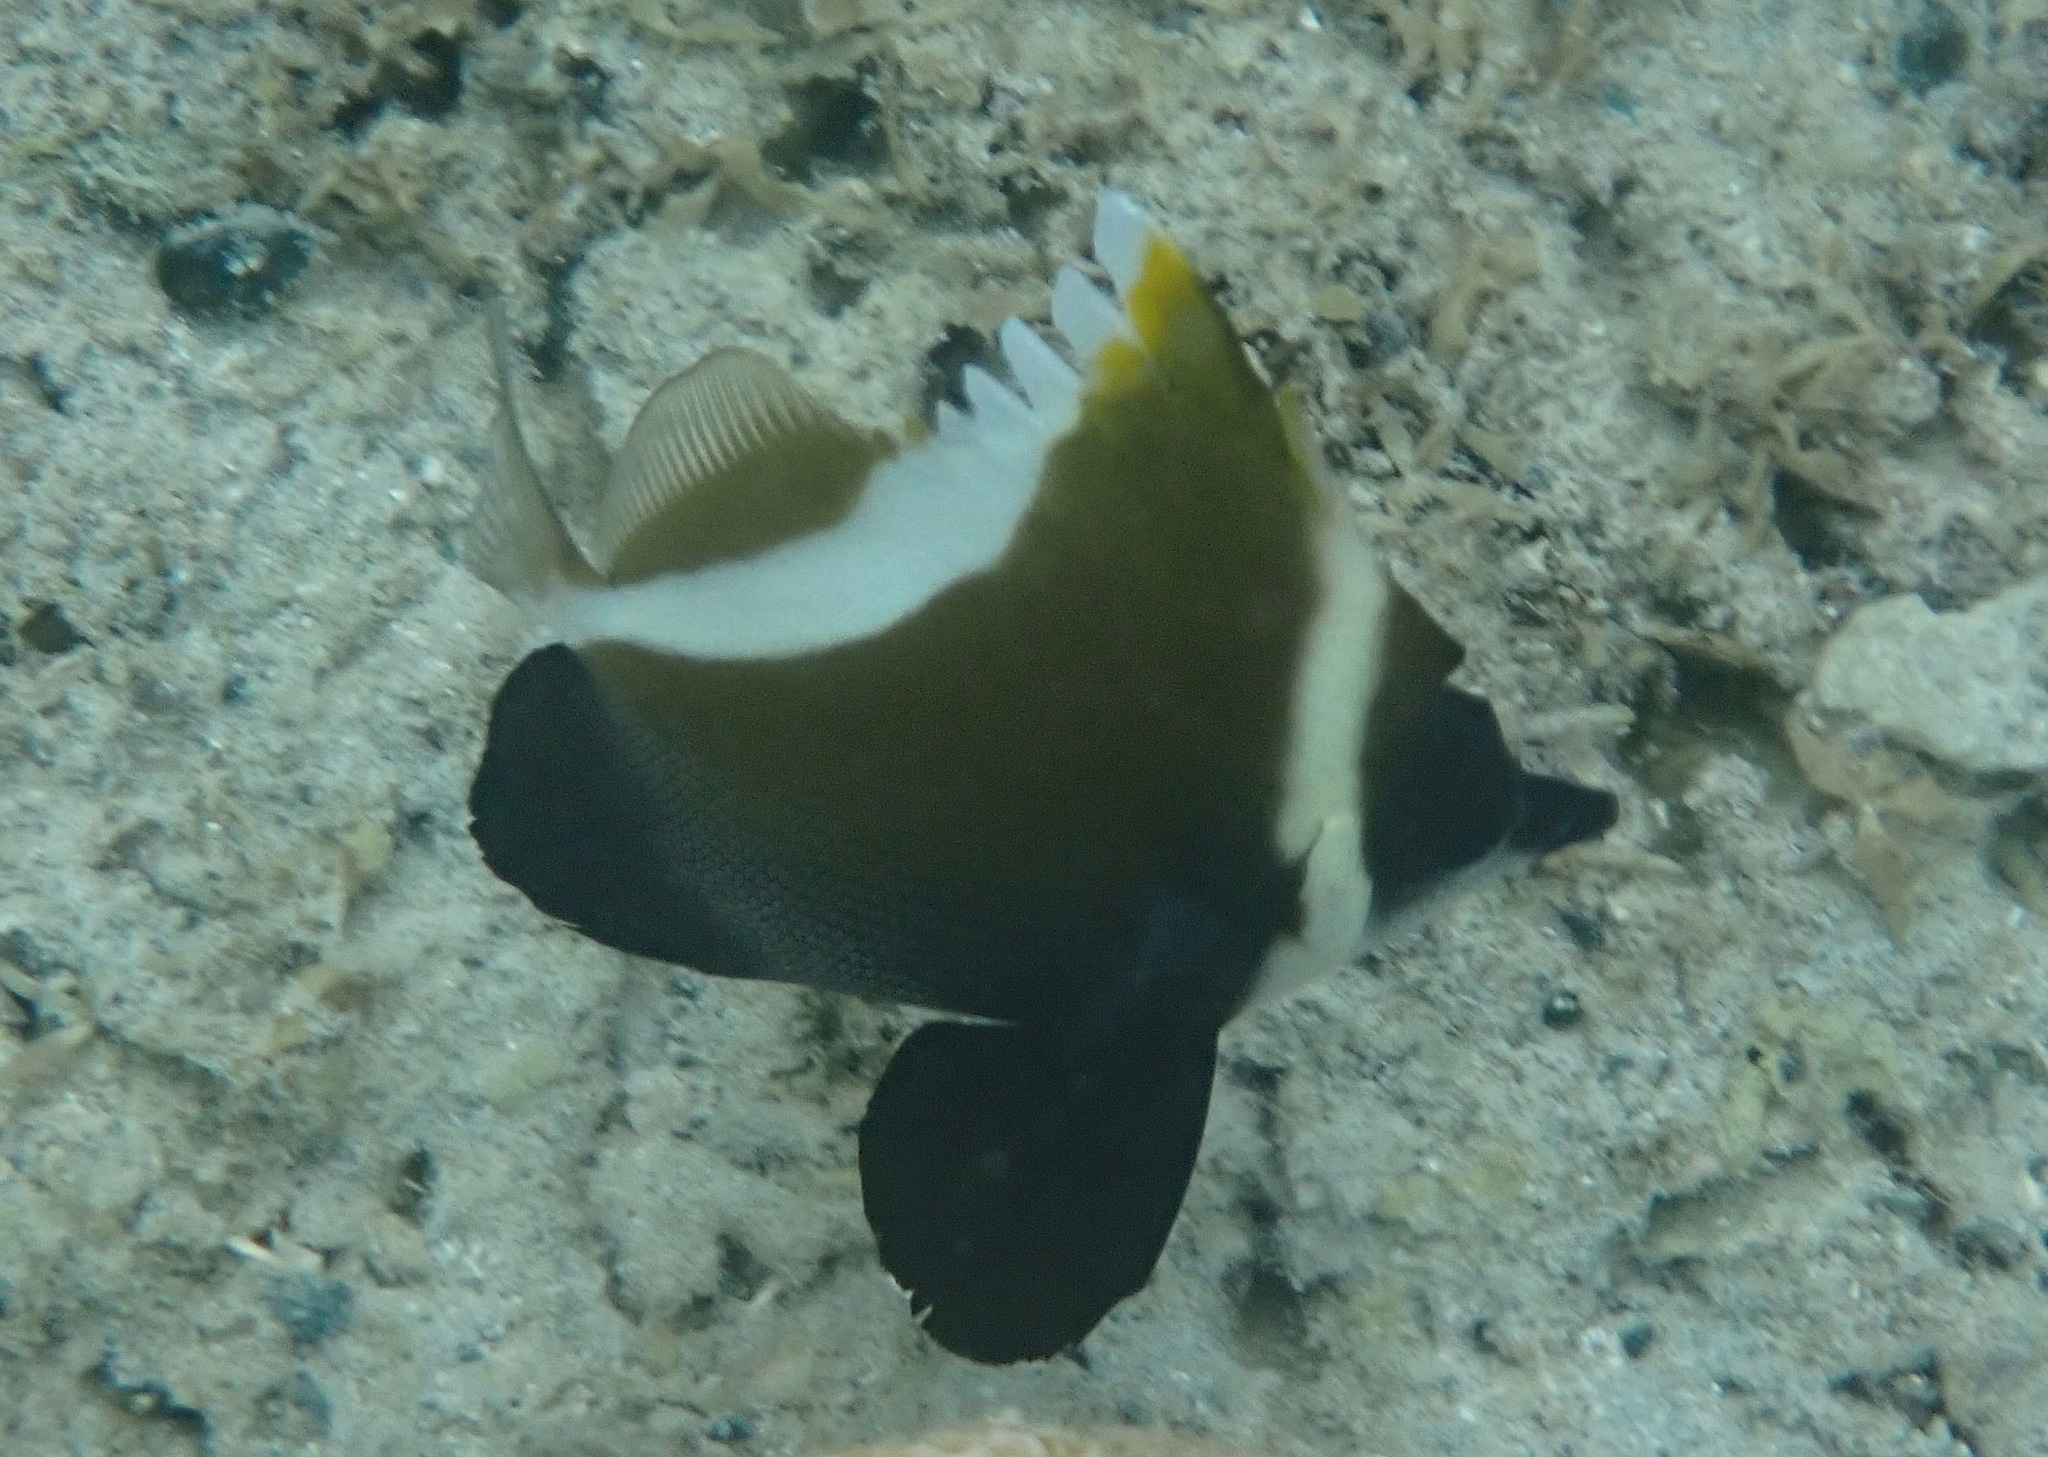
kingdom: Animalia
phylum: Chordata
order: Perciformes
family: Chaetodontidae
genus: Heniochus
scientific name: Heniochus varius
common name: Horned bannerfish
